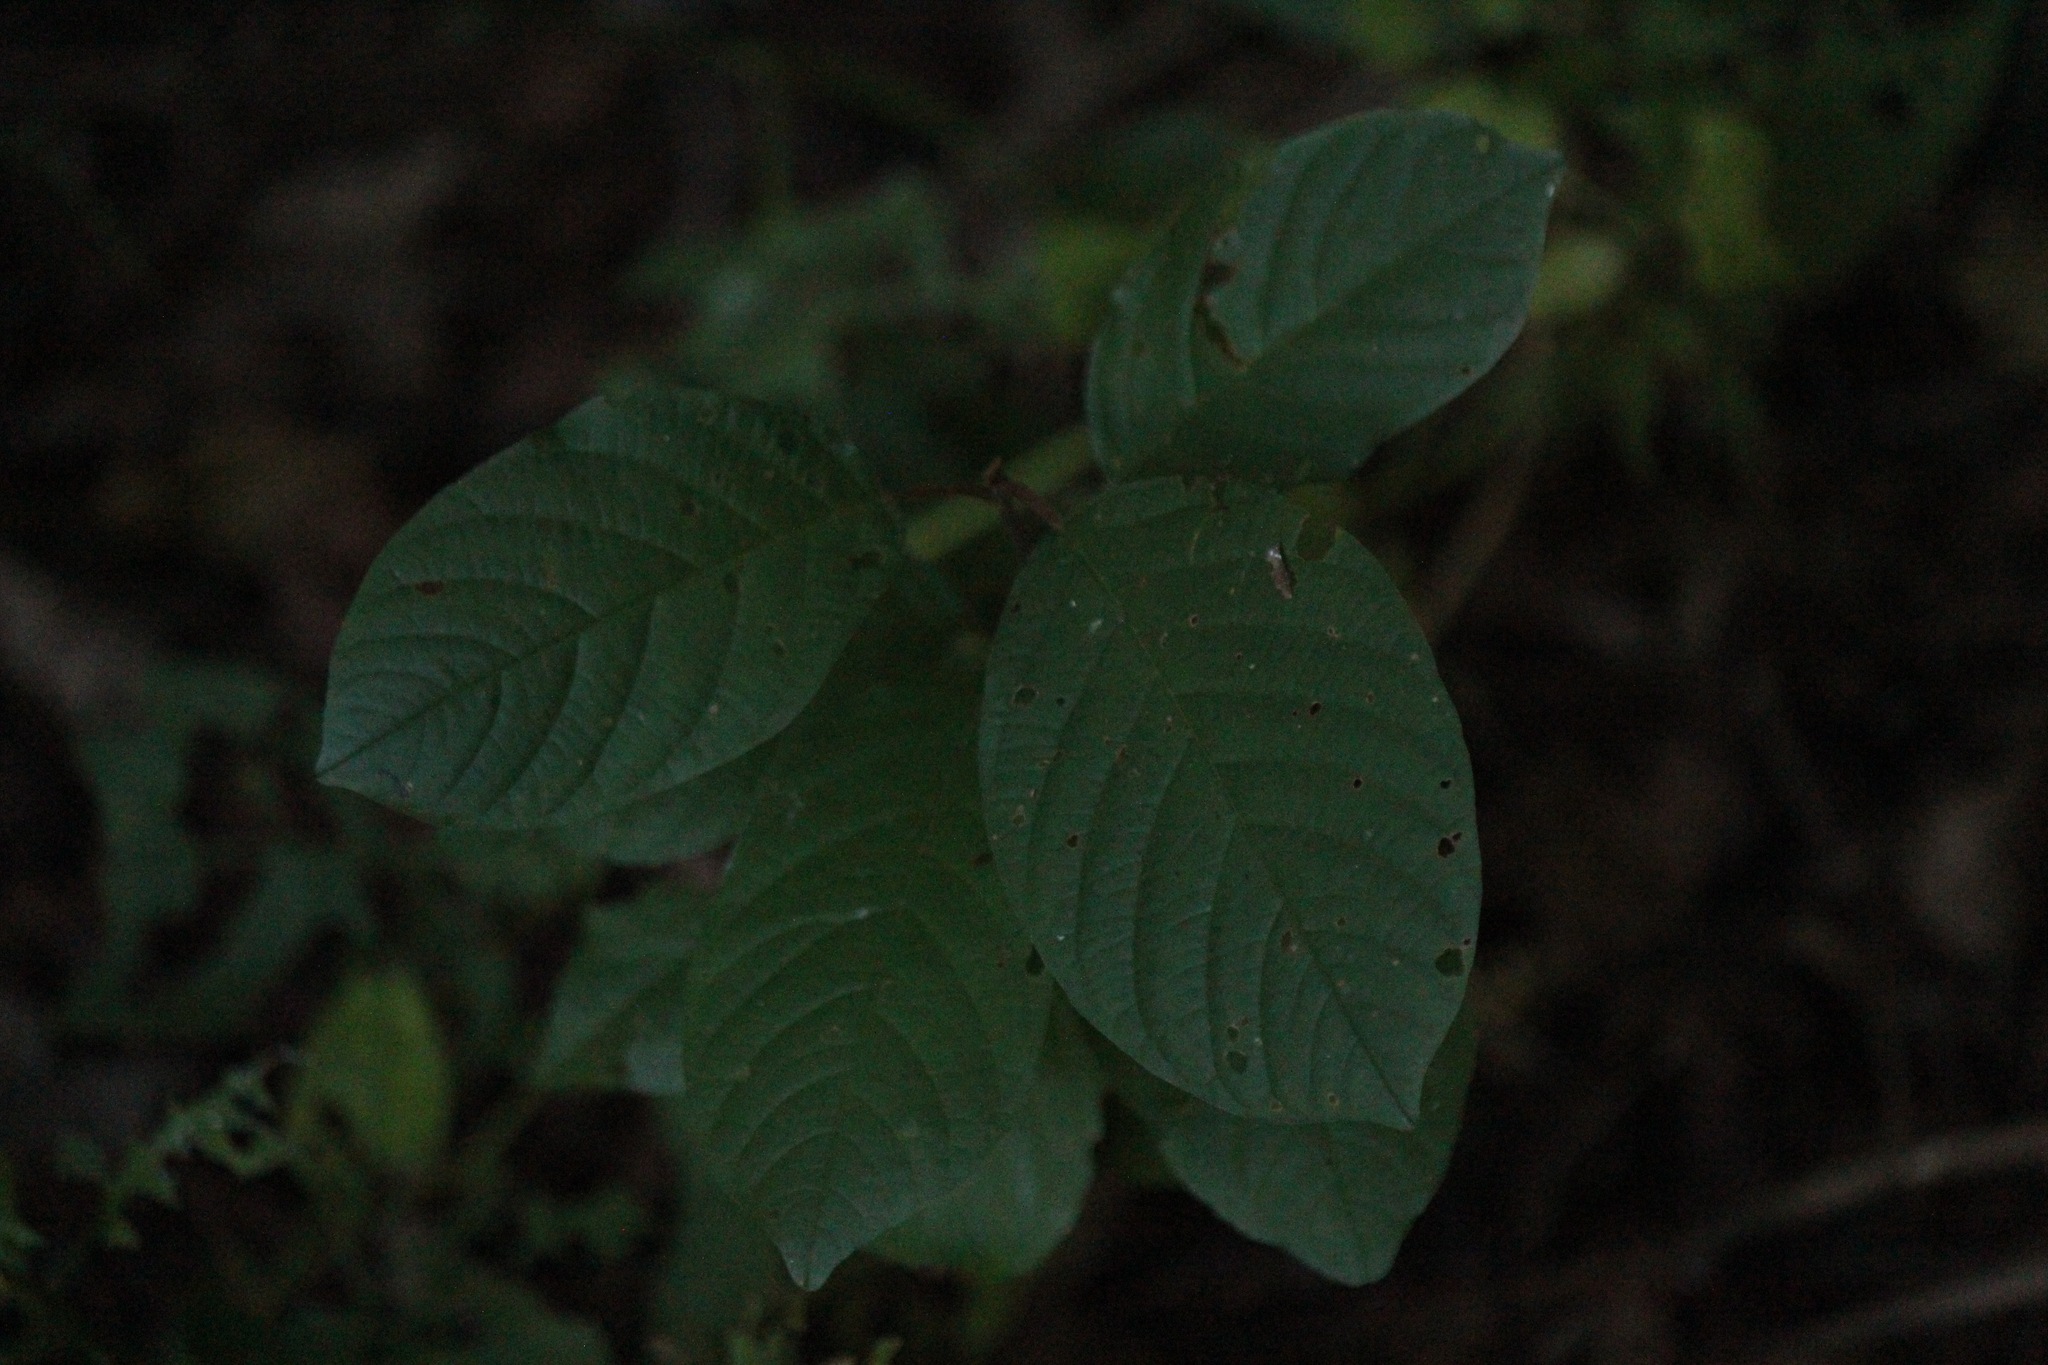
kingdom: Plantae
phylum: Tracheophyta
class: Magnoliopsida
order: Rosales
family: Rhamnaceae
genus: Frangula
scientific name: Frangula alnus
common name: Alder buckthorn
